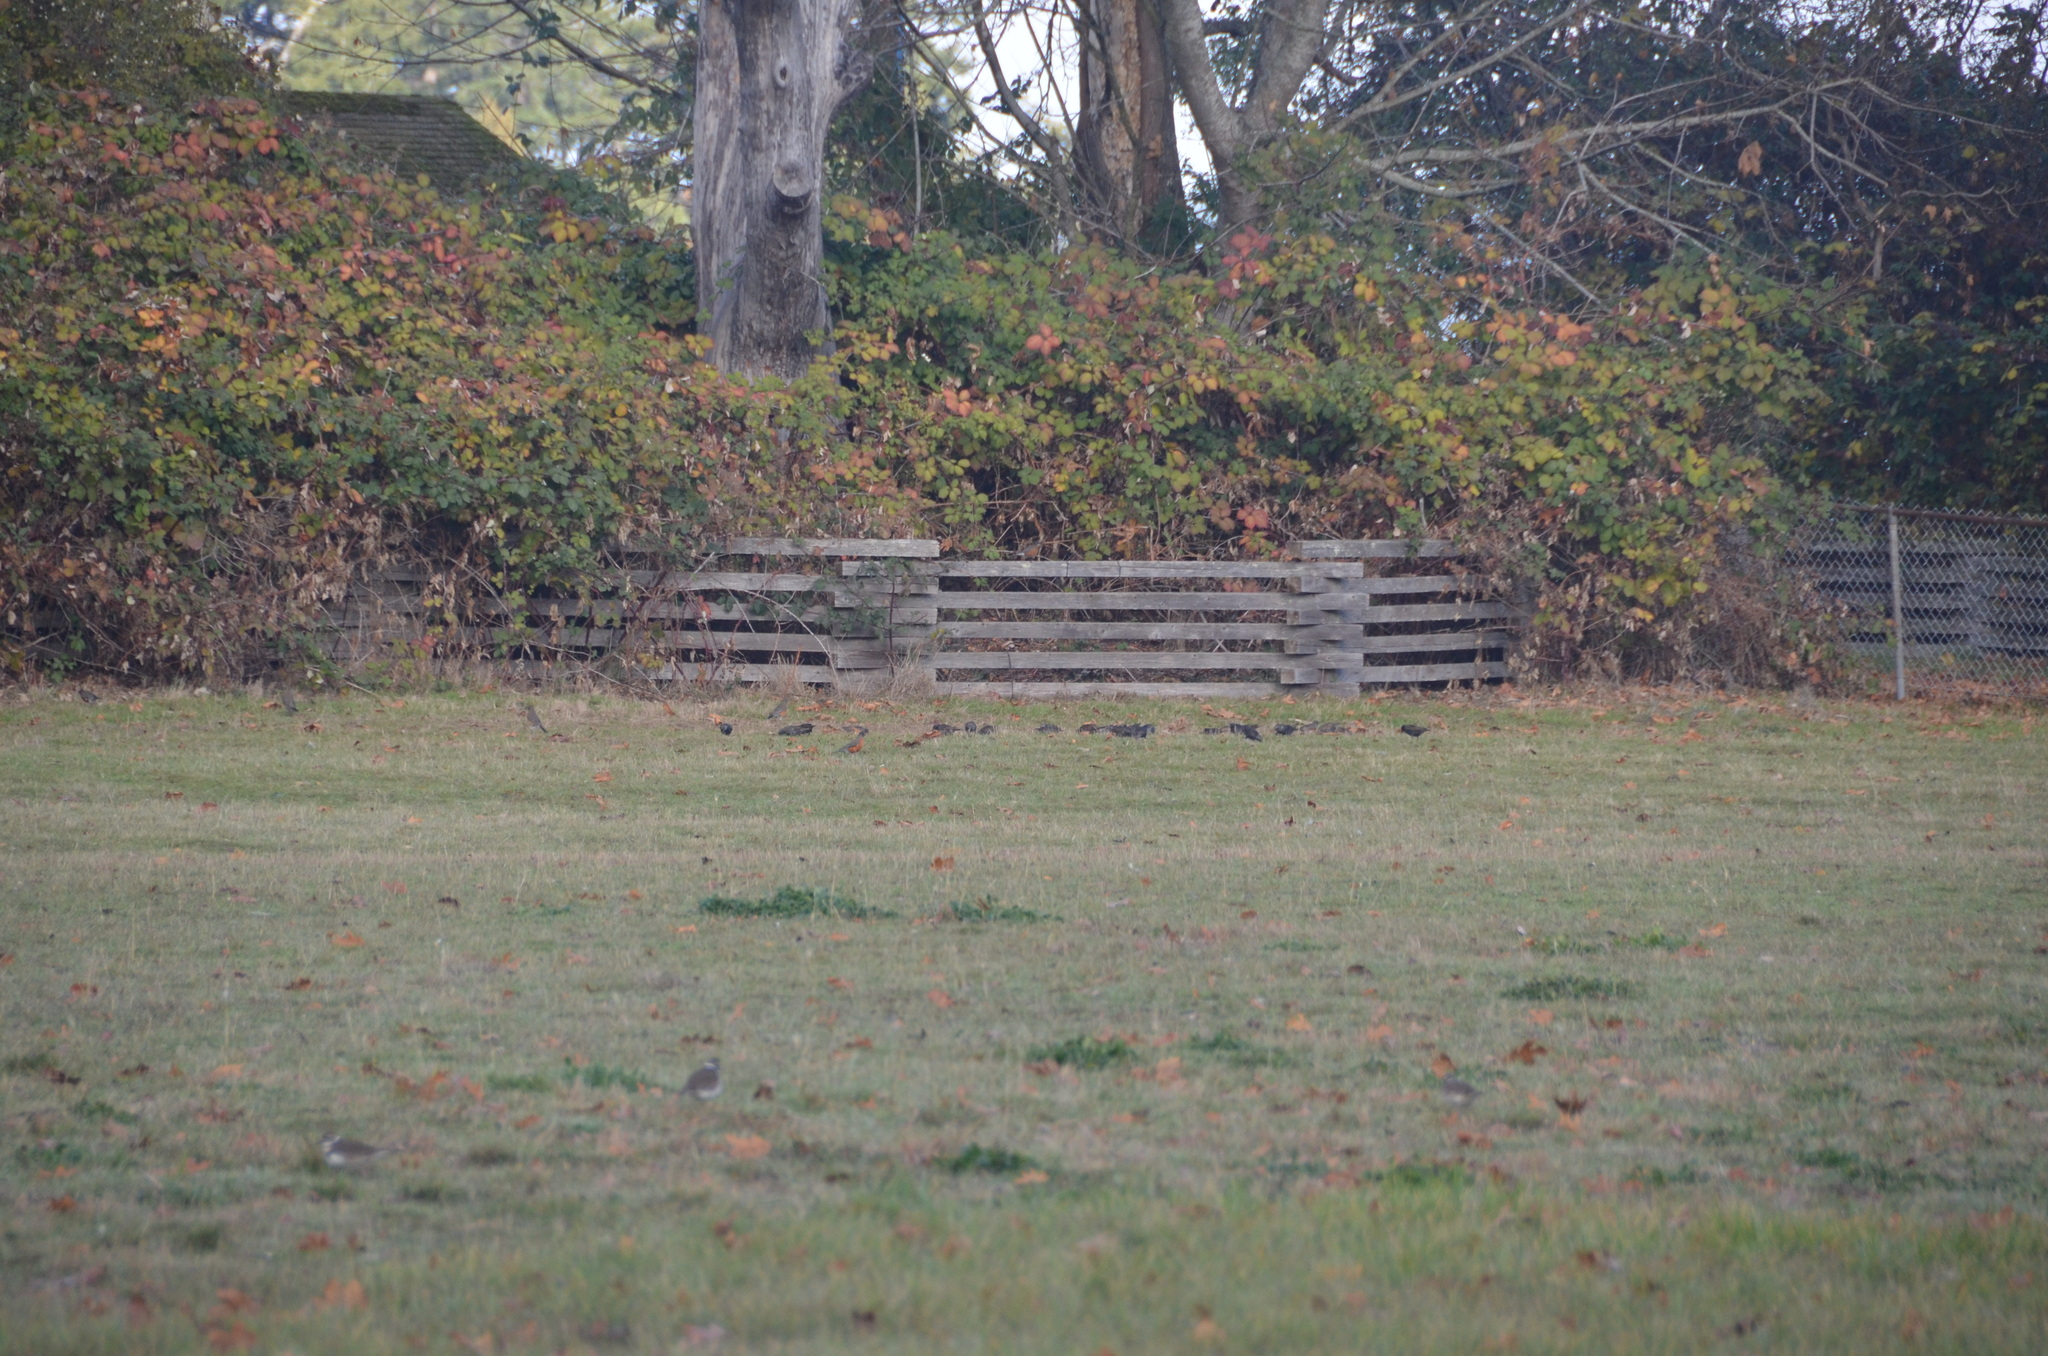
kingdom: Animalia
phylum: Chordata
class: Aves
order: Passeriformes
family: Sturnidae
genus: Sturnus
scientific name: Sturnus vulgaris
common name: Common starling
